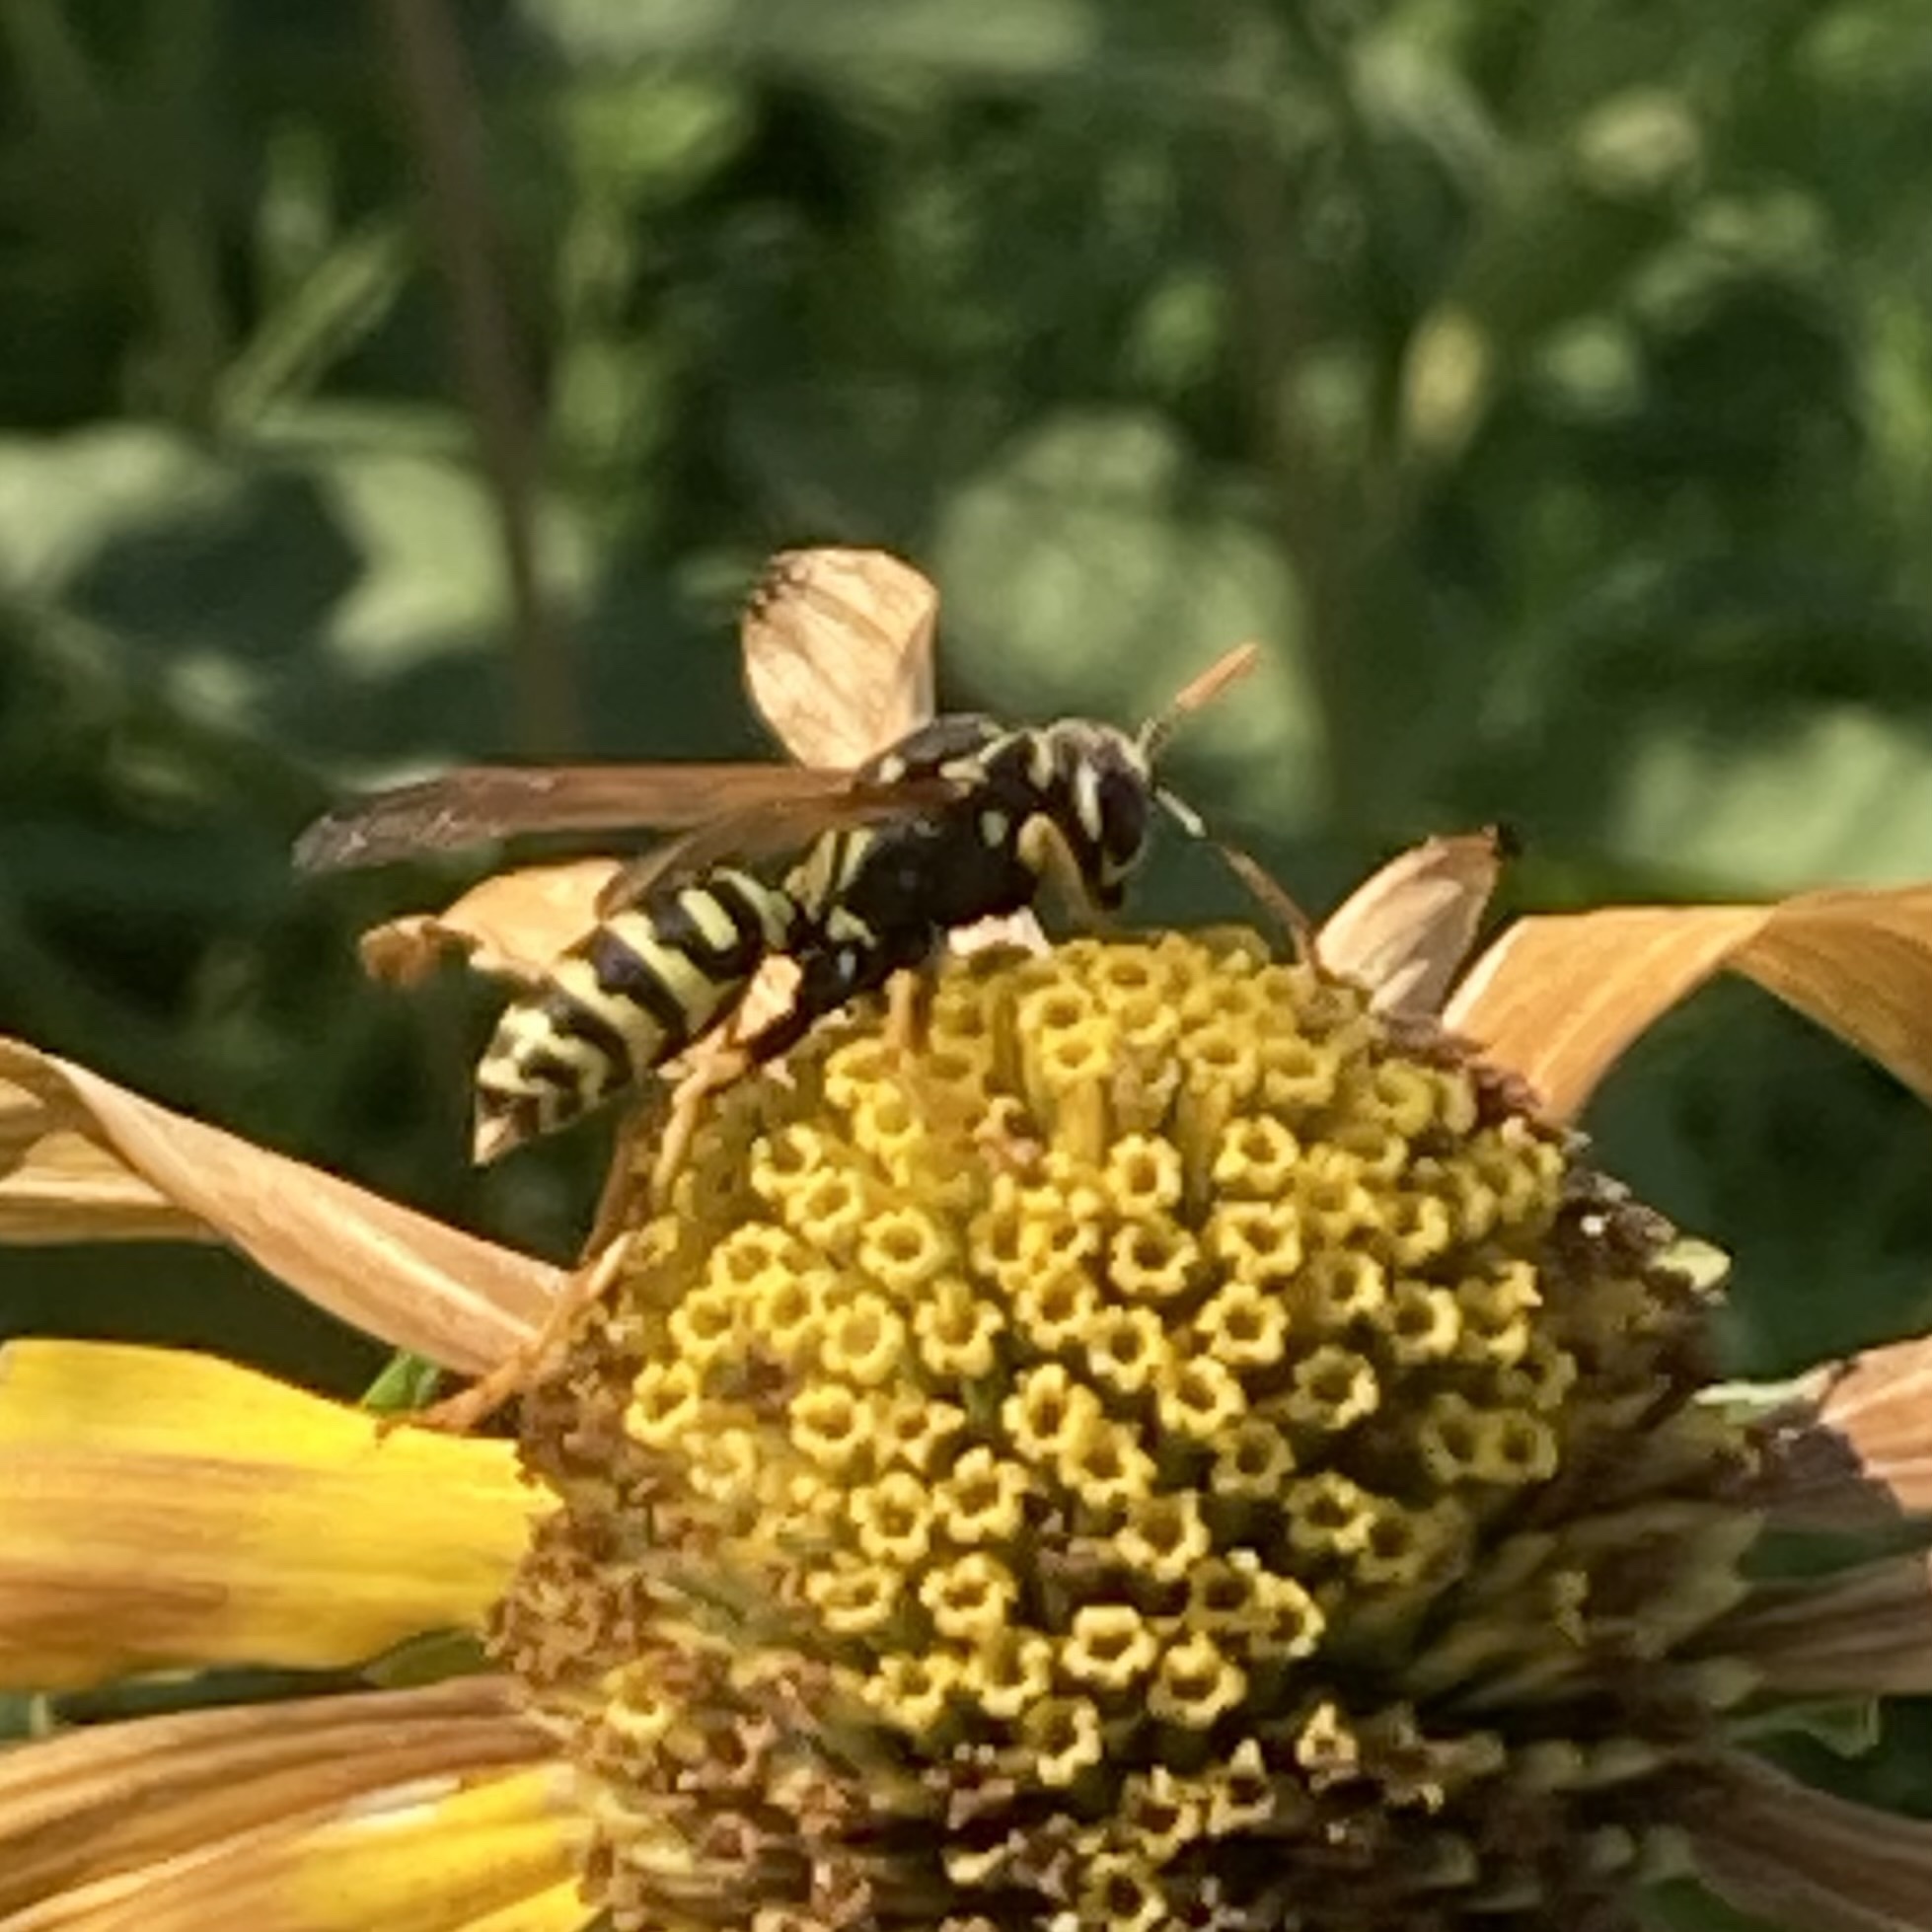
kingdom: Animalia
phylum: Arthropoda
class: Insecta
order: Hymenoptera
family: Eumenidae
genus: Polistes
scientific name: Polistes dominula
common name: Paper wasp
